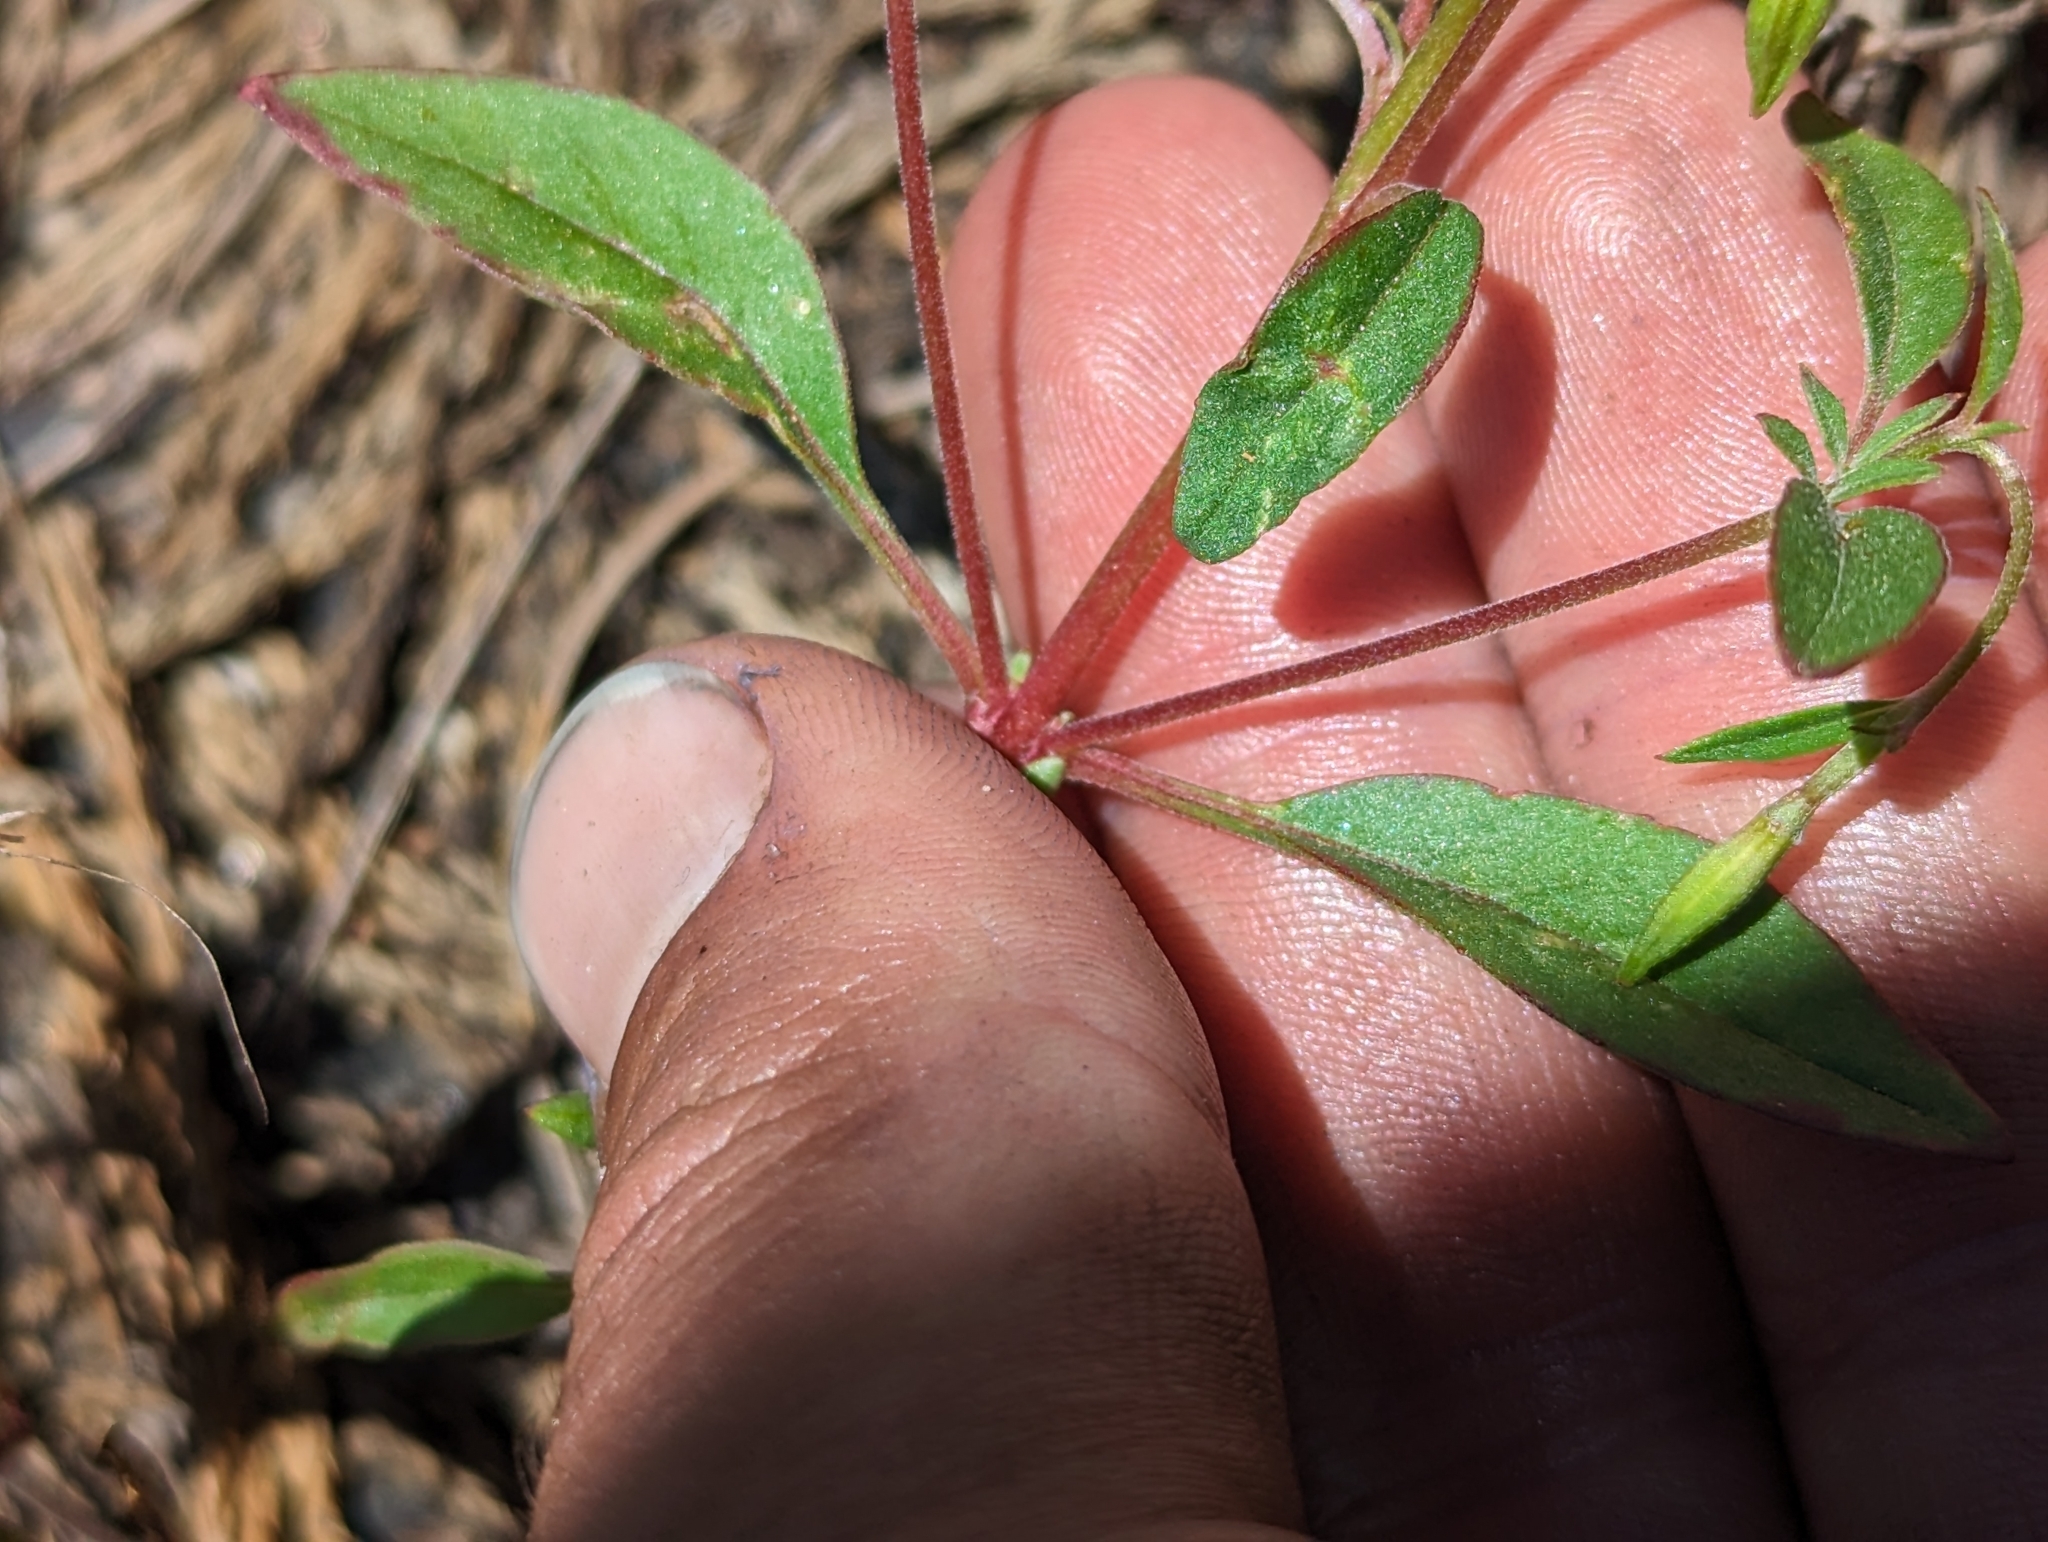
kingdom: Plantae
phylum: Tracheophyta
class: Magnoliopsida
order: Myrtales
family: Onagraceae
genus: Clarkia
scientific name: Clarkia rhomboidea
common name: Broadleaf clarkia
